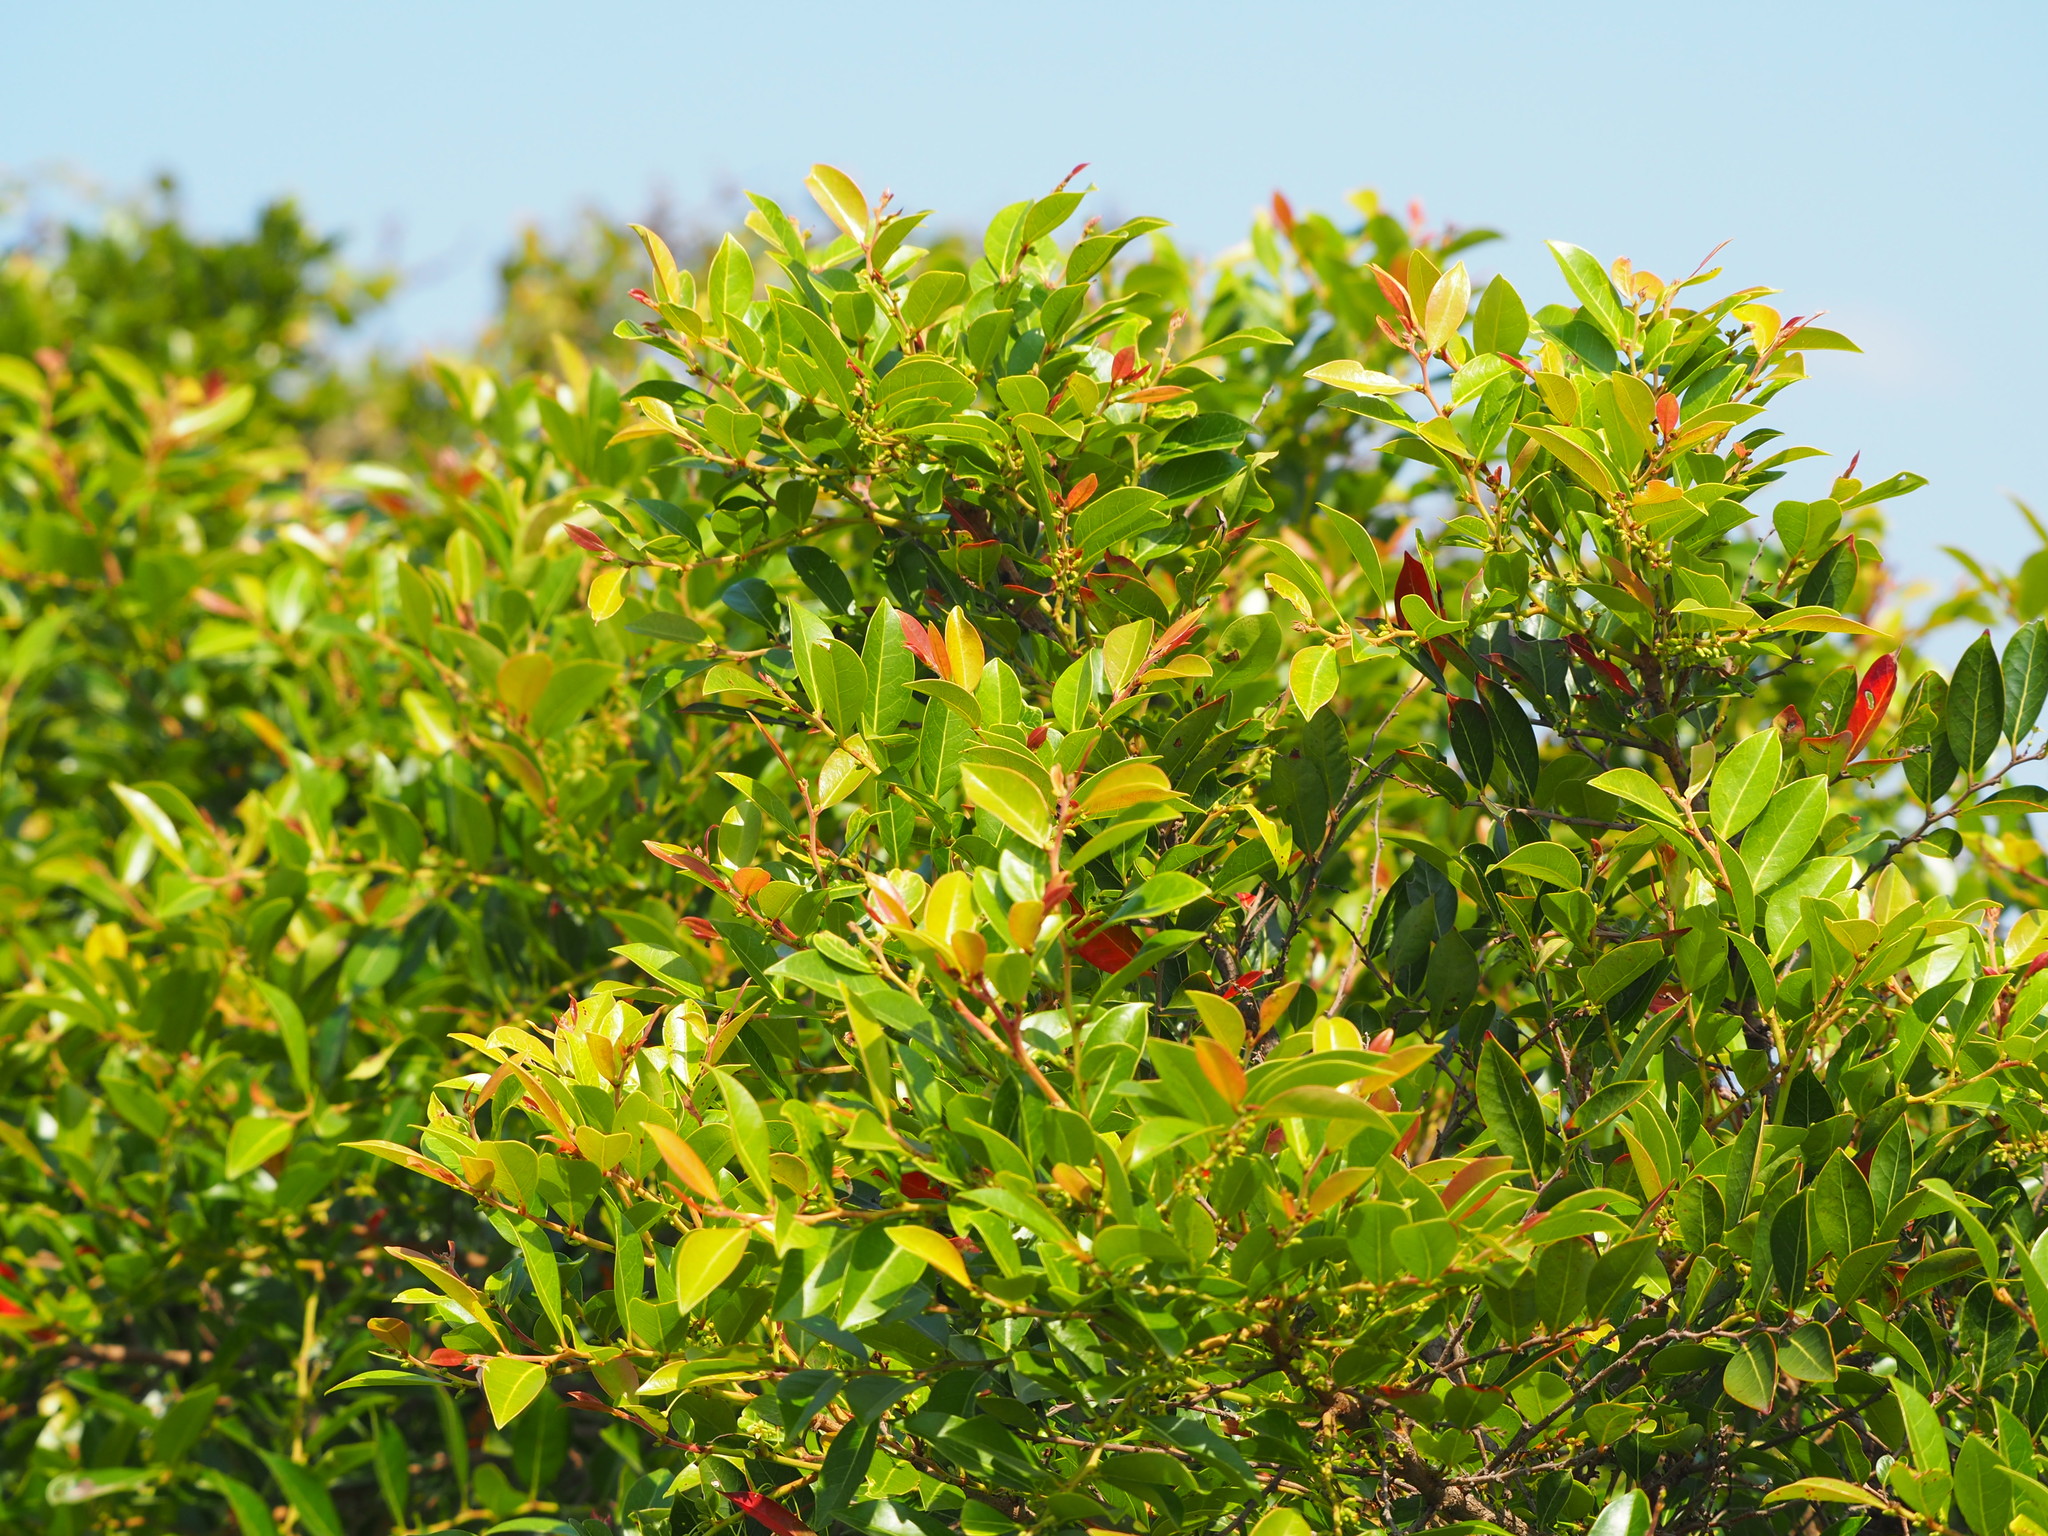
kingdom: Plantae
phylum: Tracheophyta
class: Magnoliopsida
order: Malpighiales
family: Phyllanthaceae
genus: Glochidion
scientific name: Glochidion rubrum
